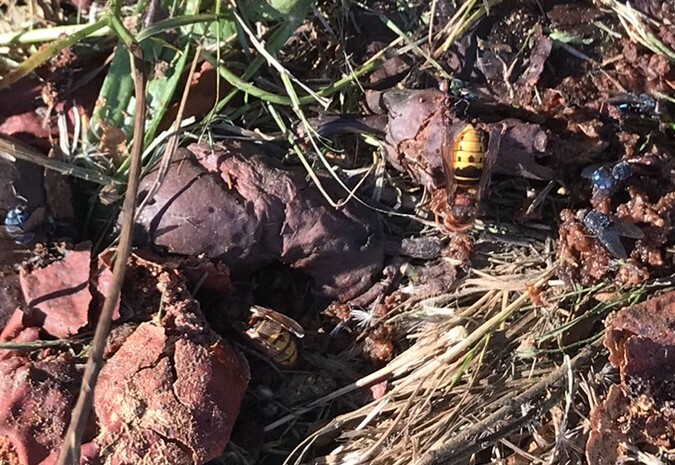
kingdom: Animalia
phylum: Arthropoda
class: Insecta
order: Hymenoptera
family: Vespidae
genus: Vespa
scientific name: Vespa crabro
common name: Hornet
